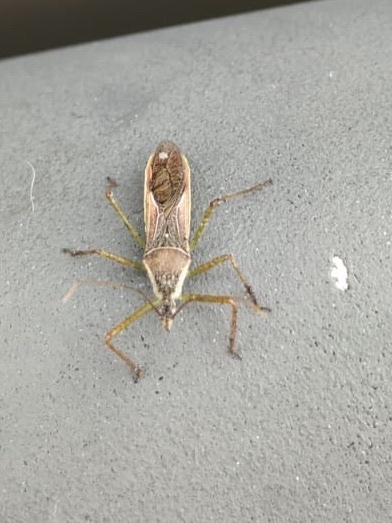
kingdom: Animalia
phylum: Arthropoda
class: Insecta
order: Hemiptera
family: Reduviidae
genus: Zelus
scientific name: Zelus renardii
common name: Assassin bug
